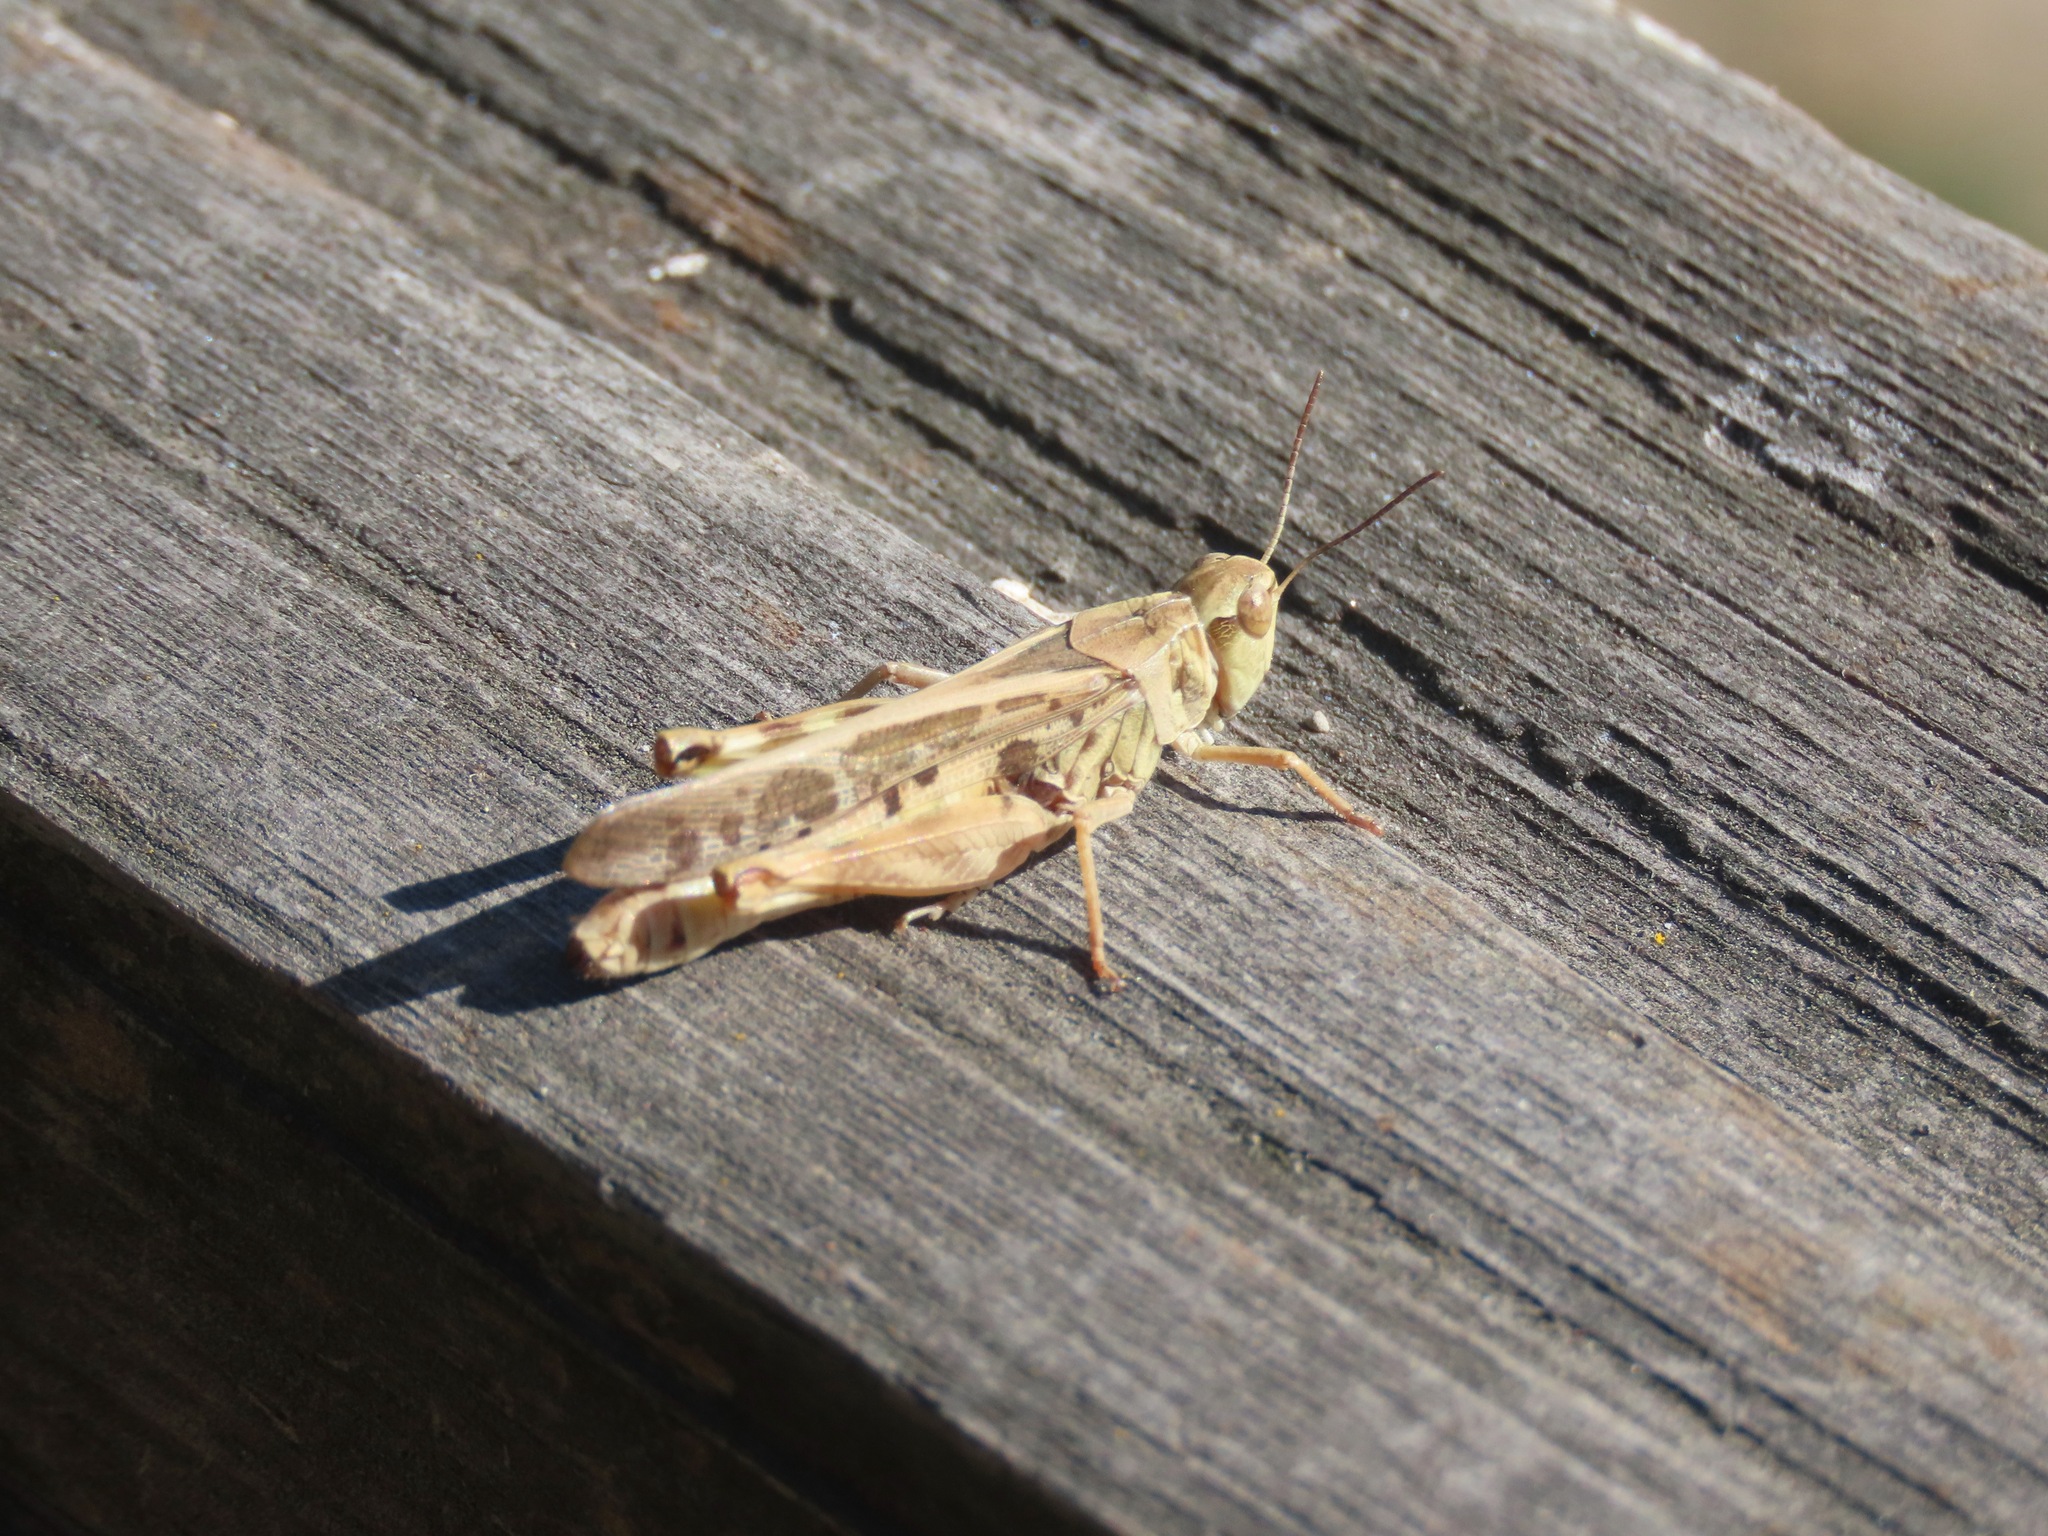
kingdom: Animalia
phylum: Arthropoda
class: Insecta
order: Orthoptera
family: Acrididae
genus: Camnula
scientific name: Camnula pellucida
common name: Clear-winged grasshopper
